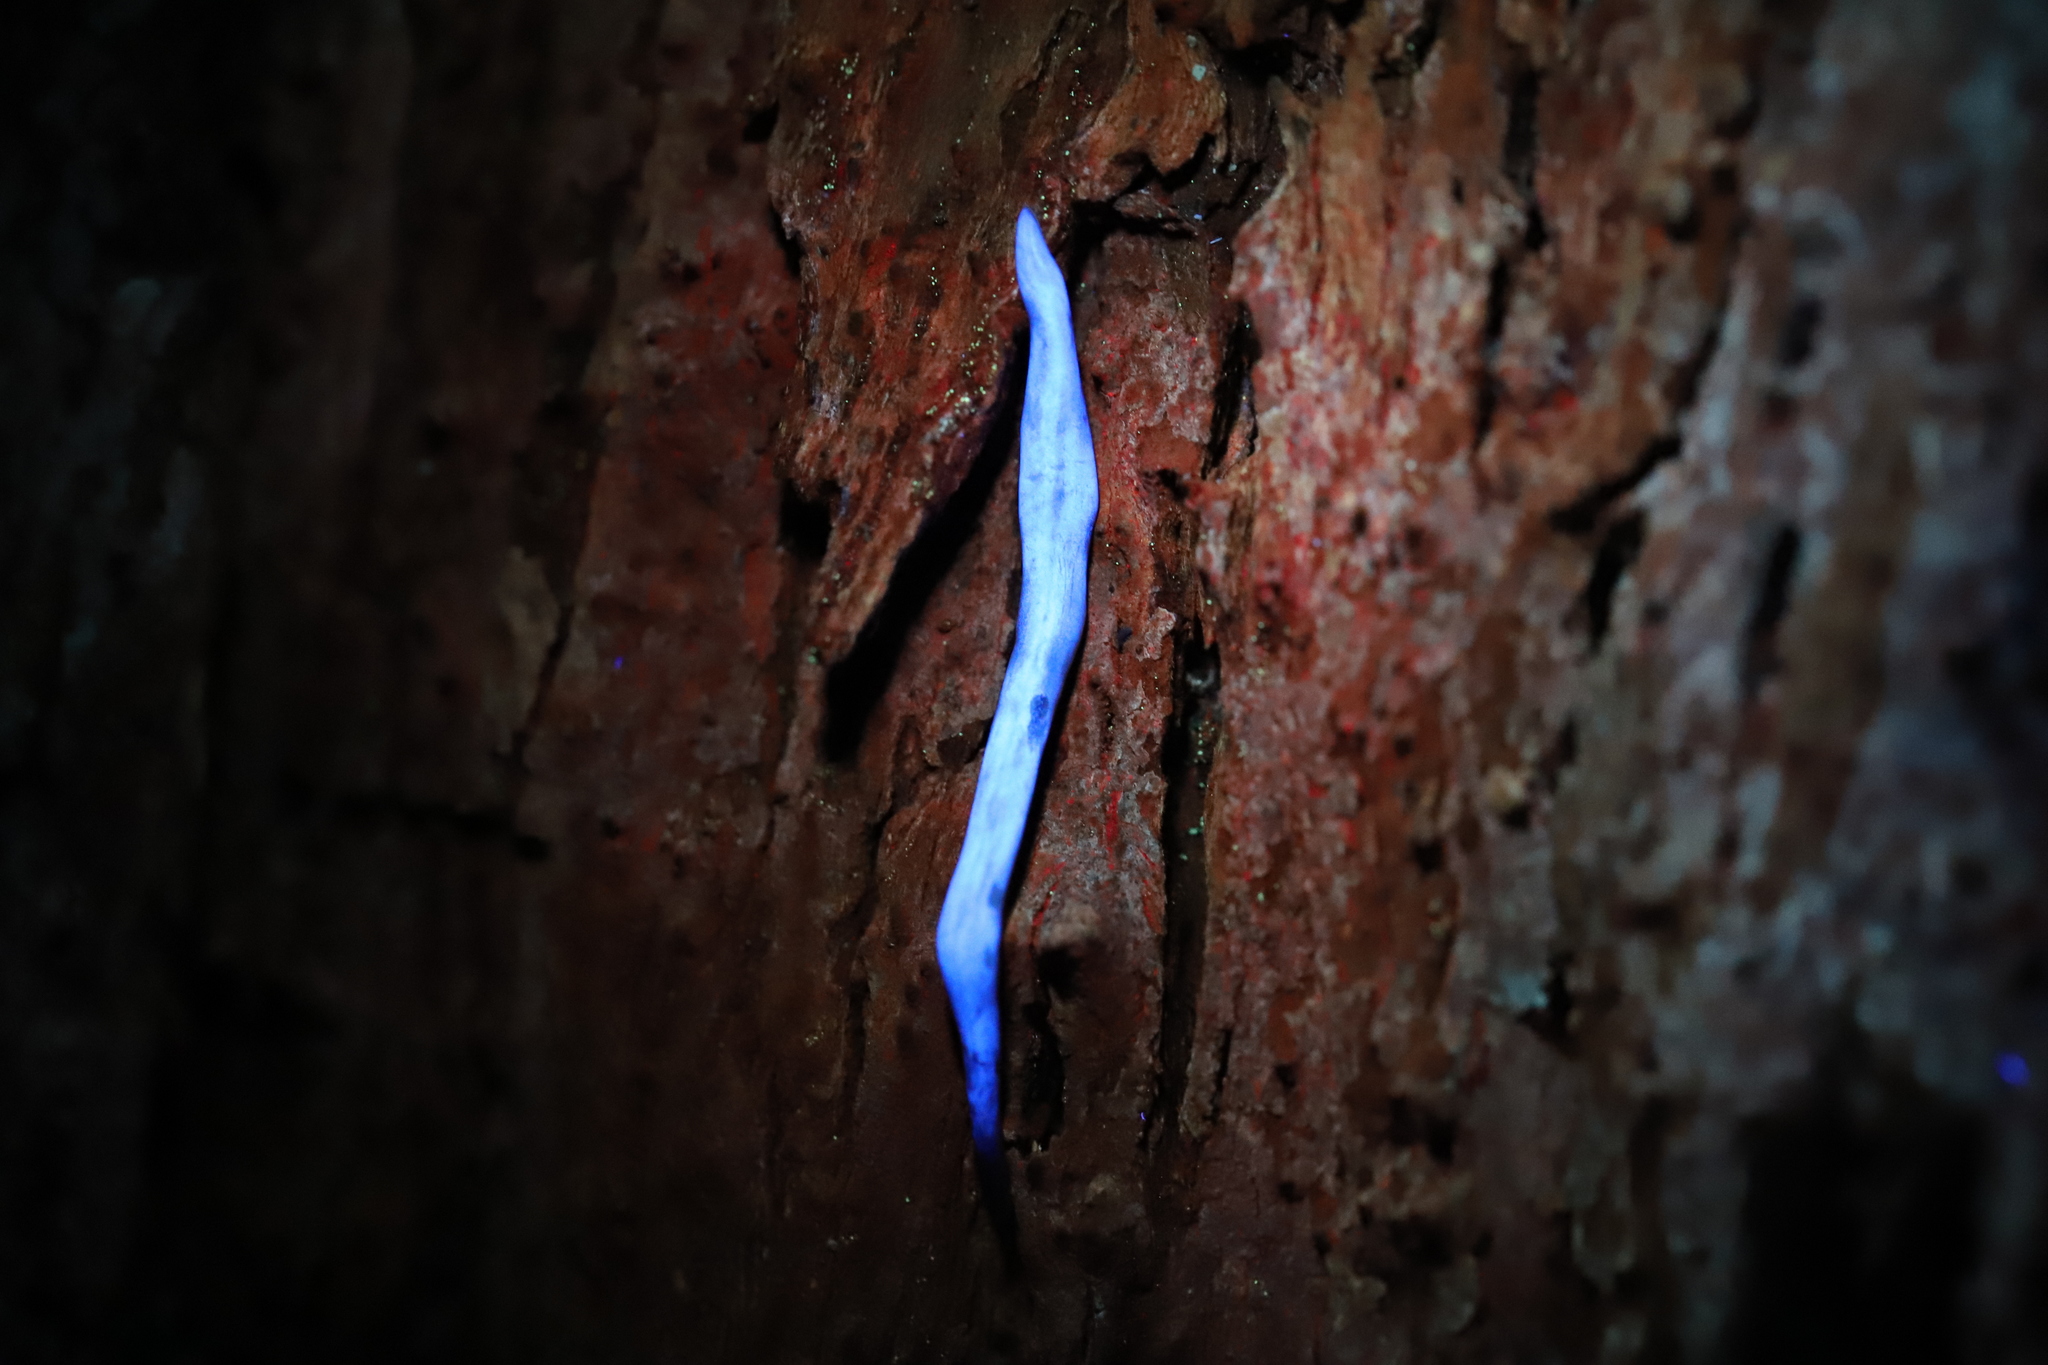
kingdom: Animalia
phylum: Platyhelminthes
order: Tricladida
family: Geoplanidae
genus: Anzoplana
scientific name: Anzoplana trilineata
